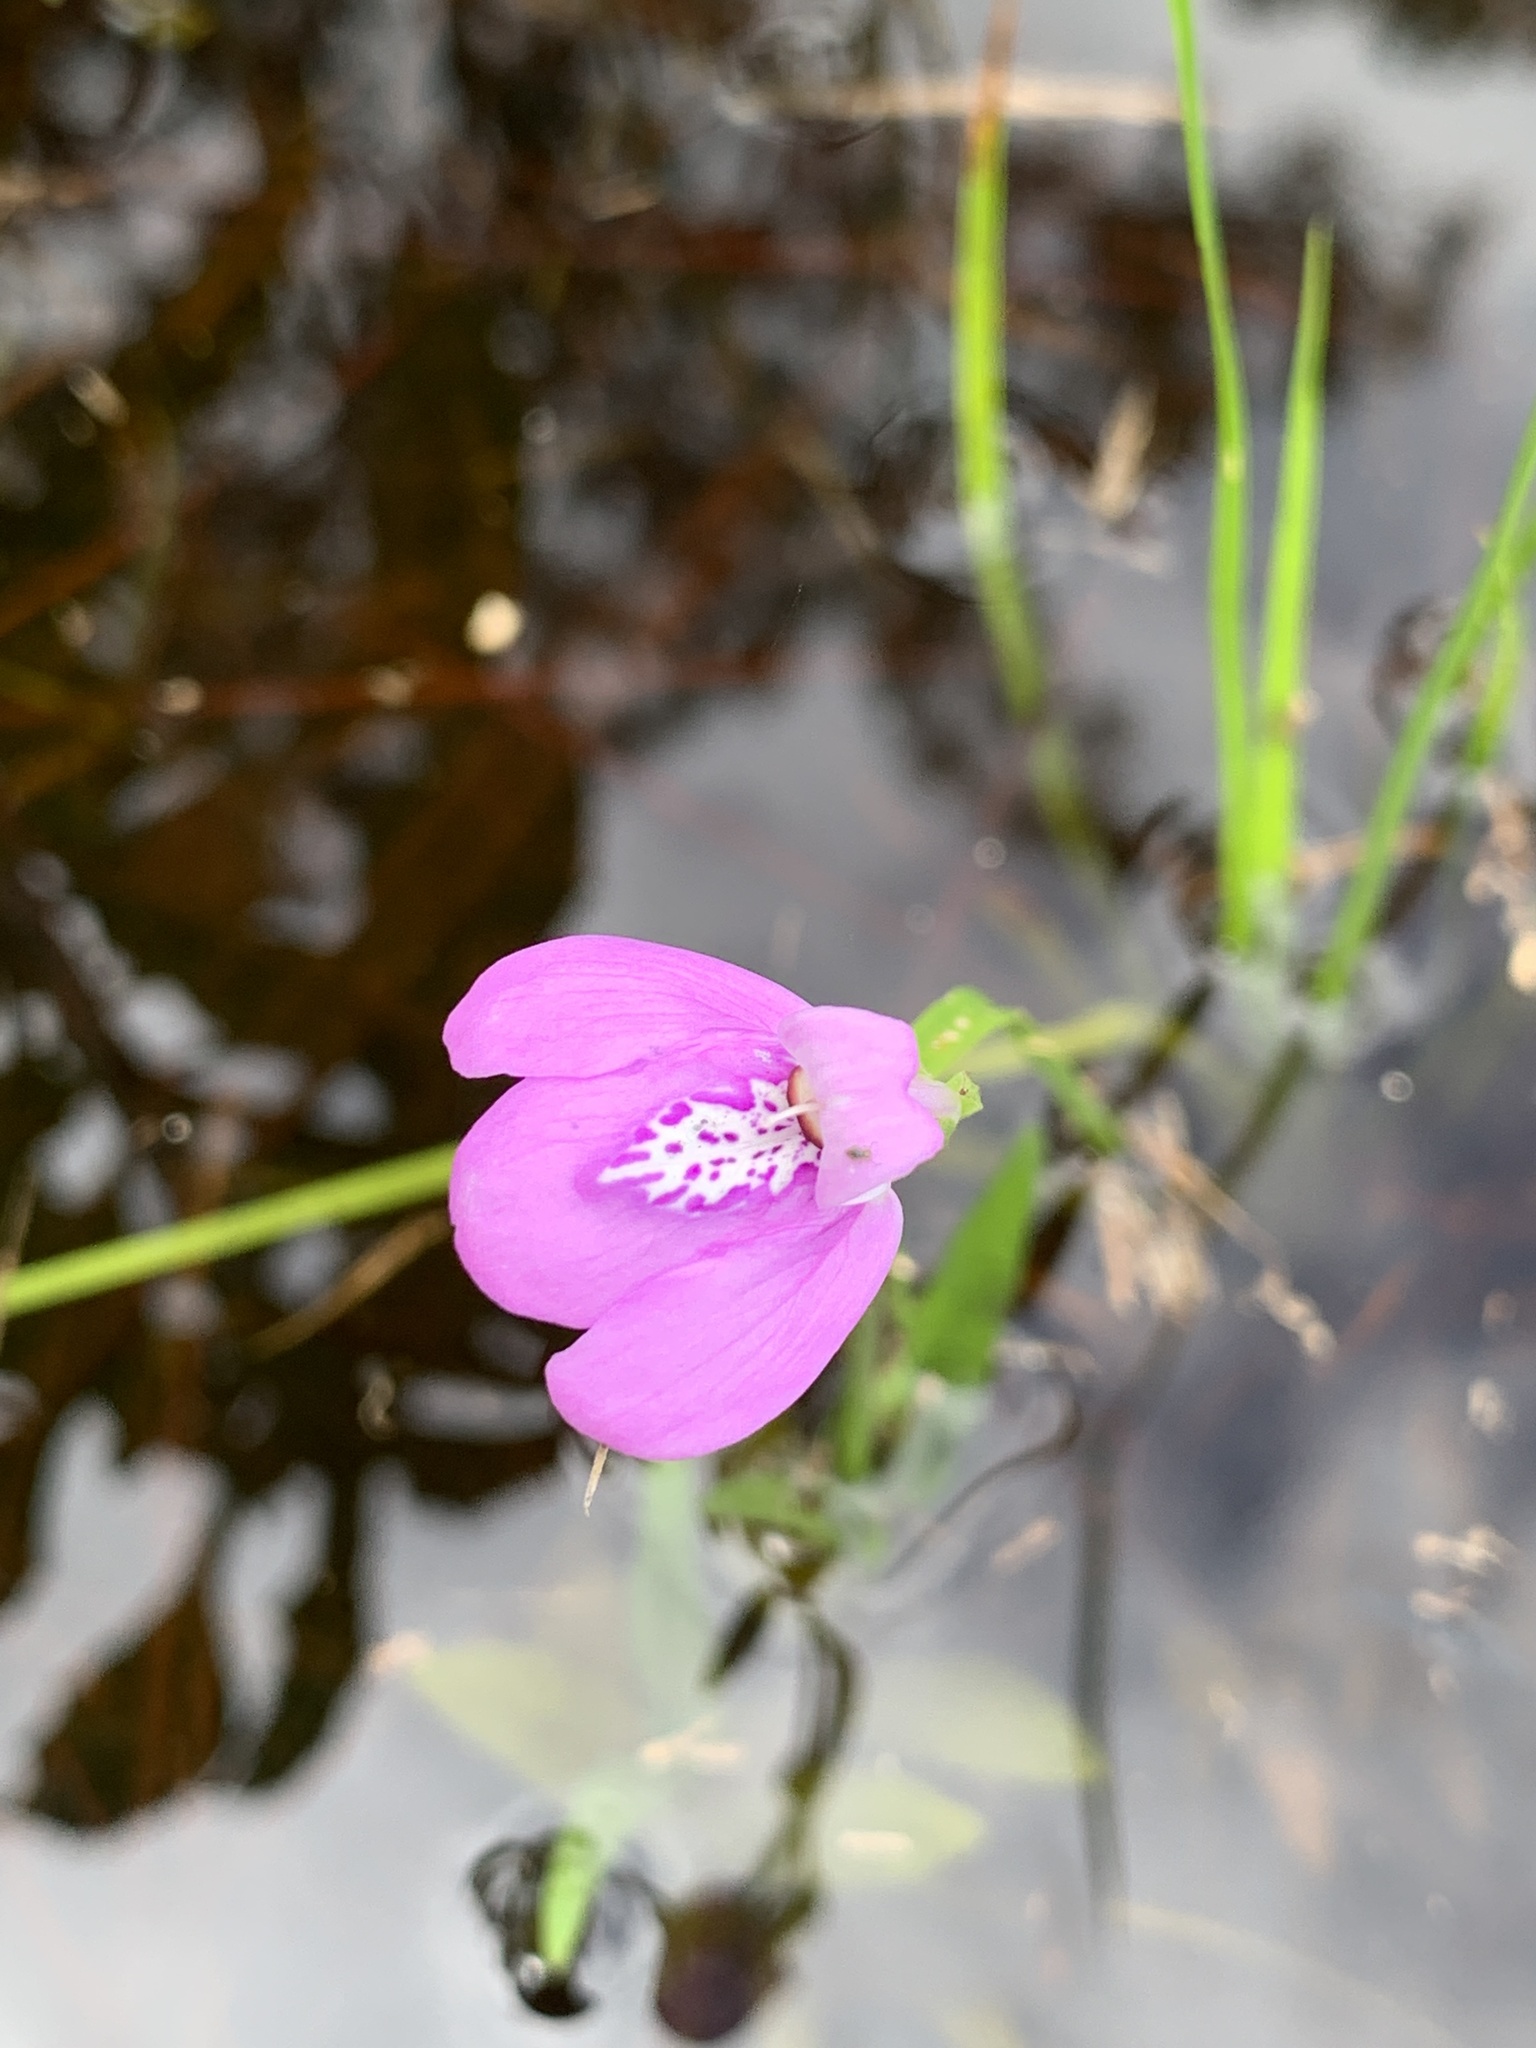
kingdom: Plantae
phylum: Tracheophyta
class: Magnoliopsida
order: Lamiales
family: Acanthaceae
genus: Dianthera
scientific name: Dianthera angusta
